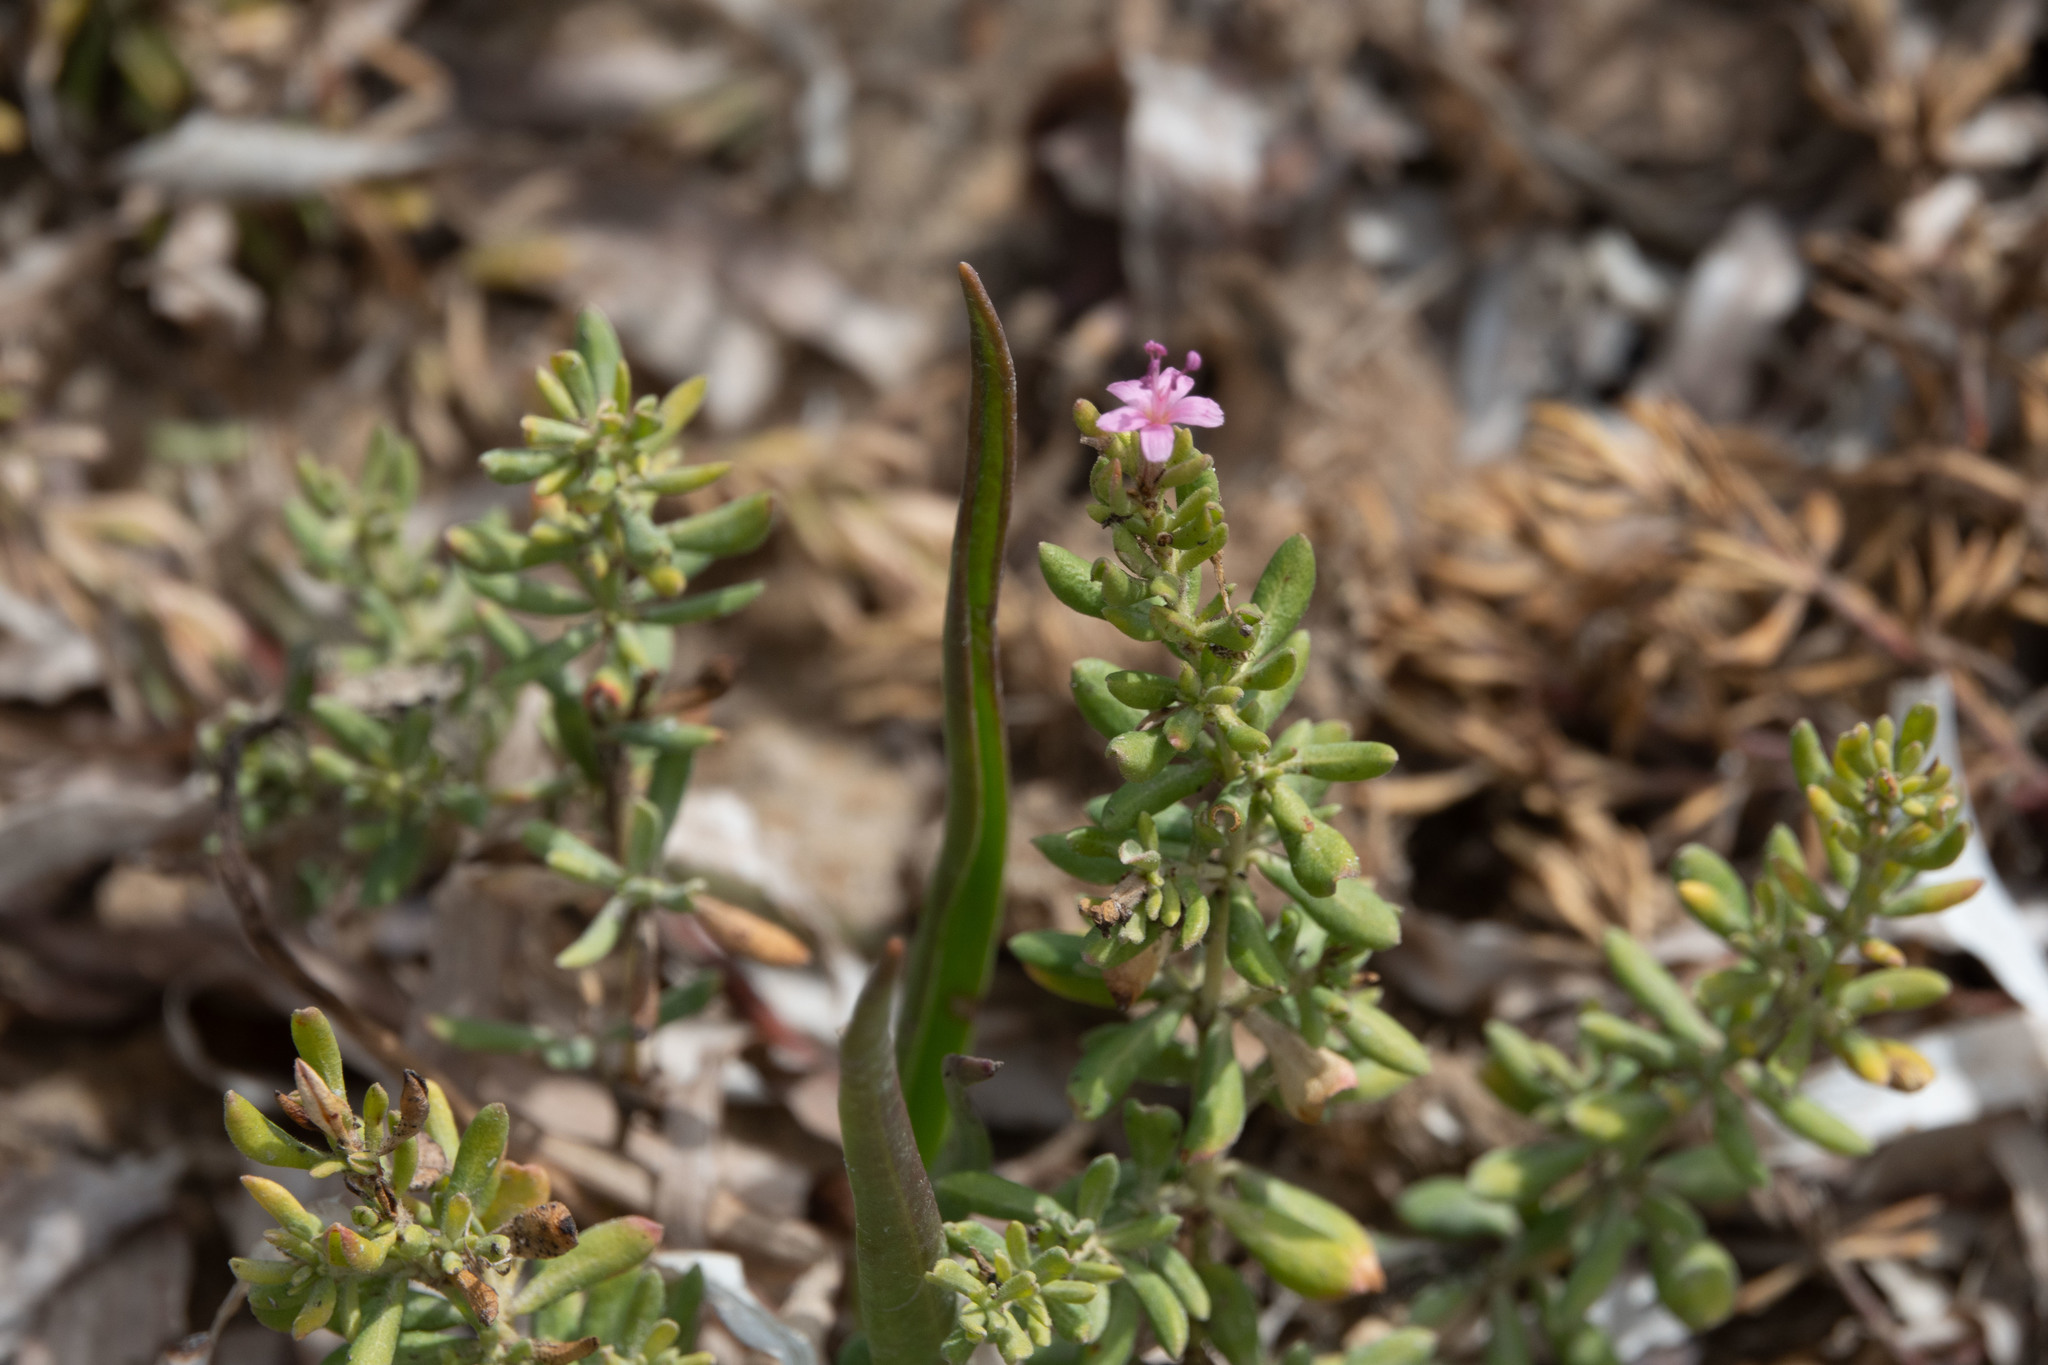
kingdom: Plantae
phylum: Tracheophyta
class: Magnoliopsida
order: Caryophyllales
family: Frankeniaceae
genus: Frankenia
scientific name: Frankenia salina
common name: Alkali seaheath
